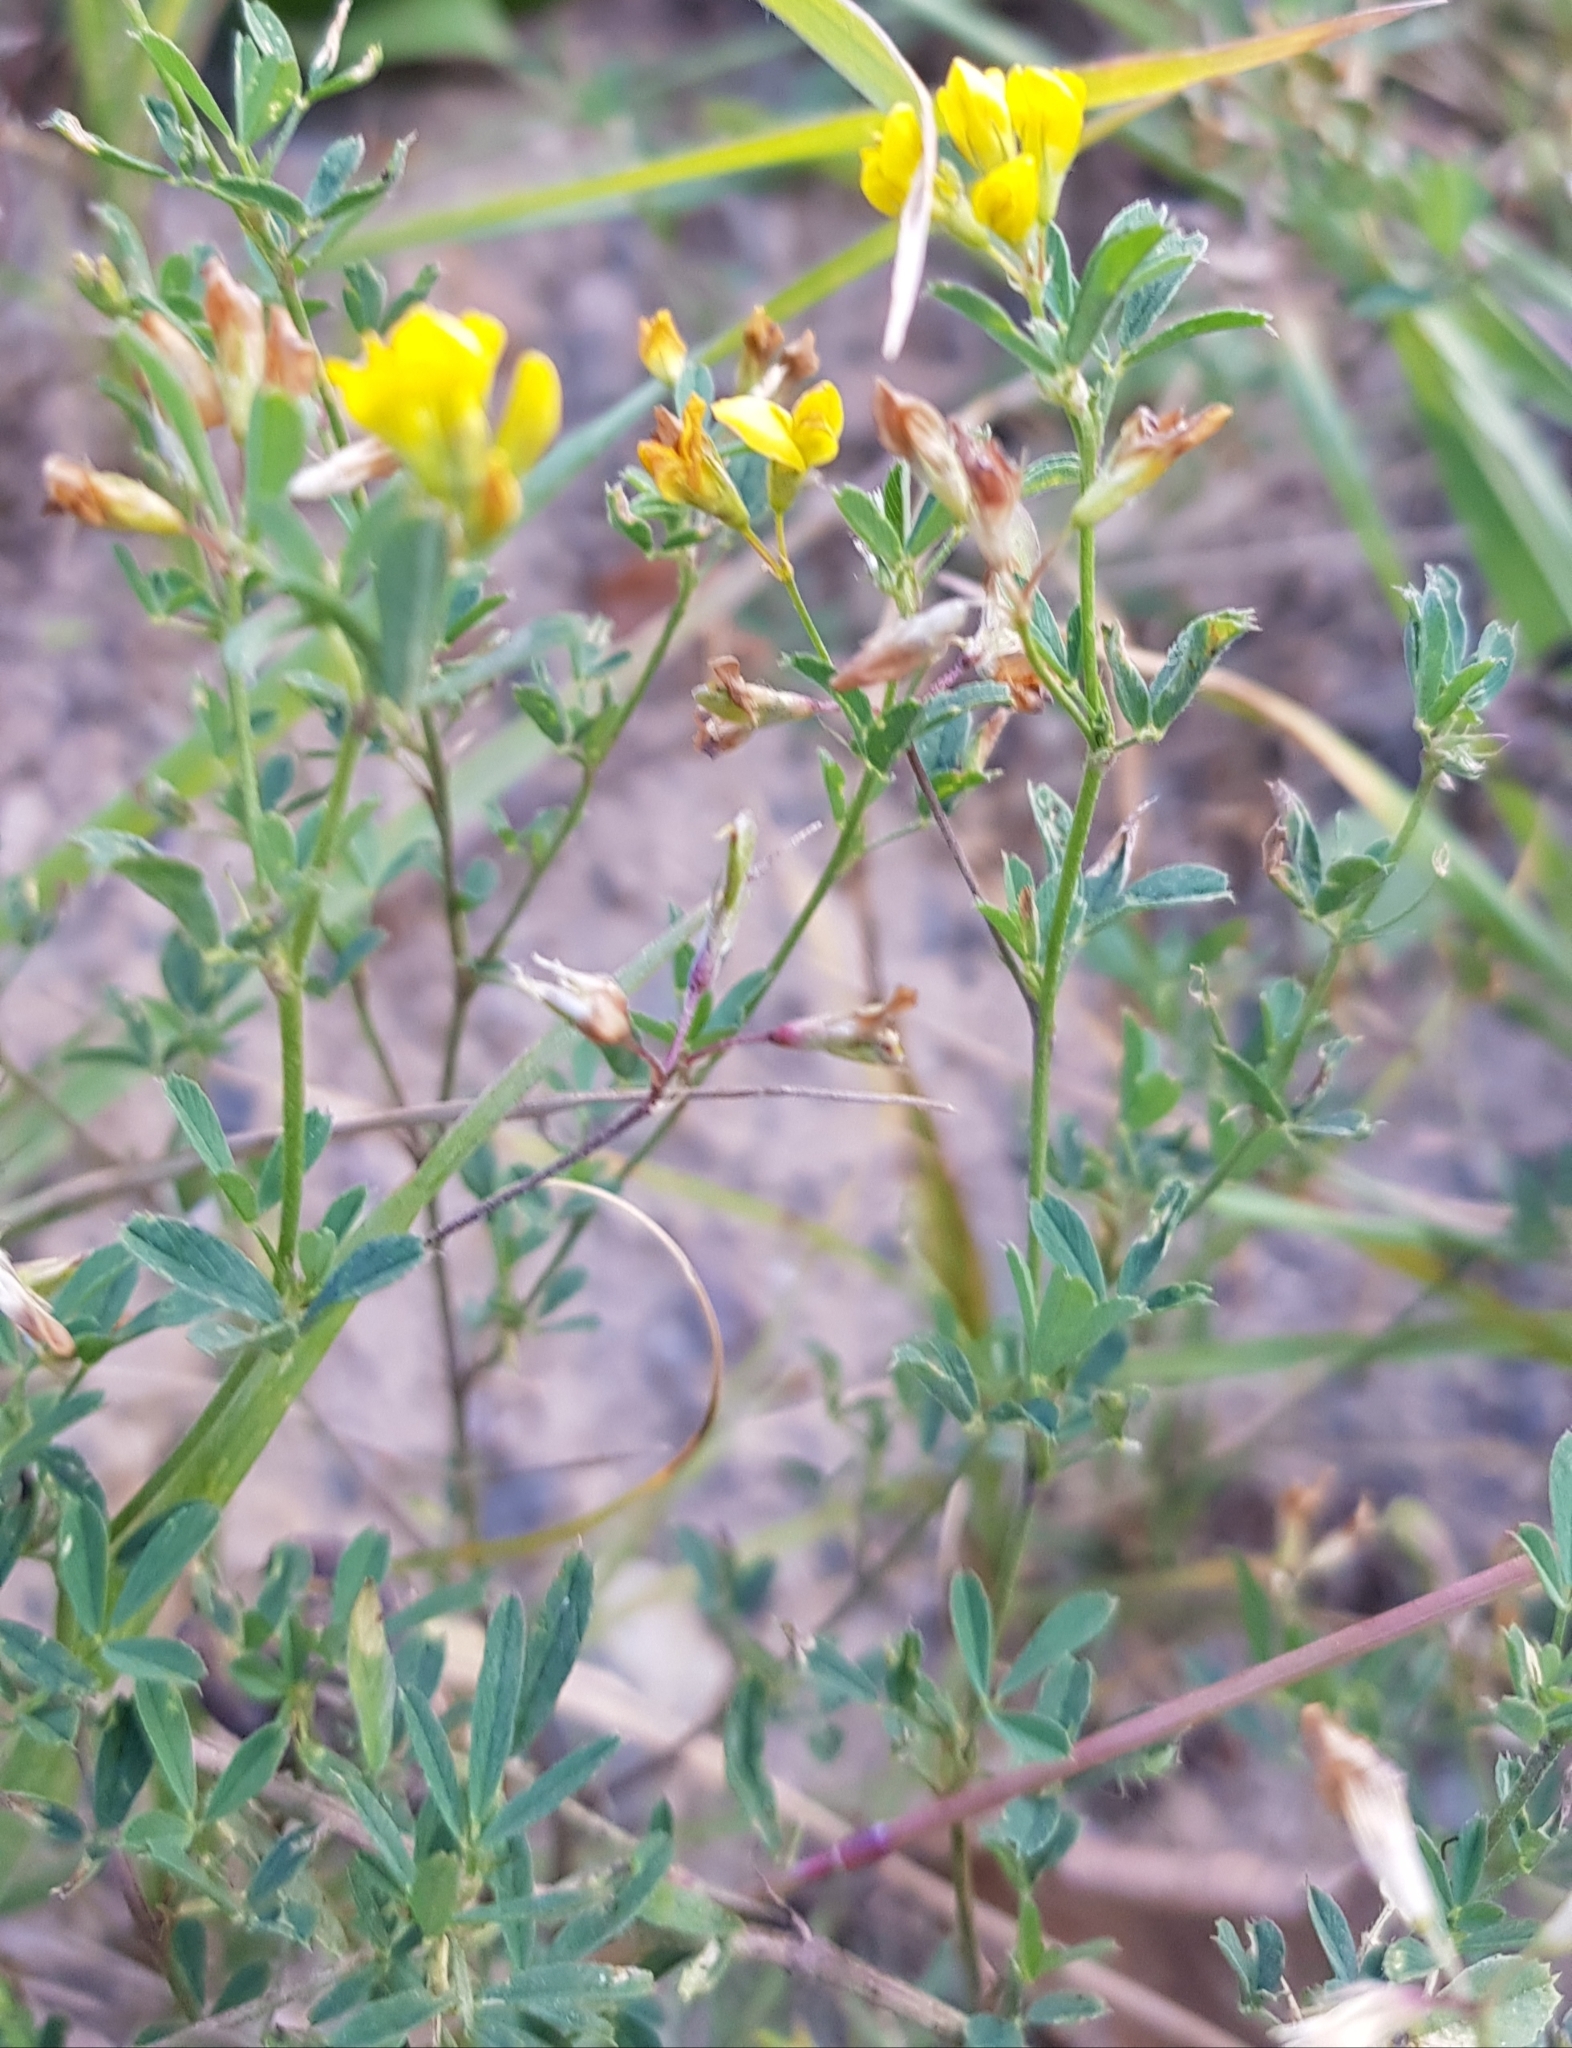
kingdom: Plantae
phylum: Tracheophyta
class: Magnoliopsida
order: Fabales
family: Fabaceae
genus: Medicago
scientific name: Medicago falcata
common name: Sickle medick
